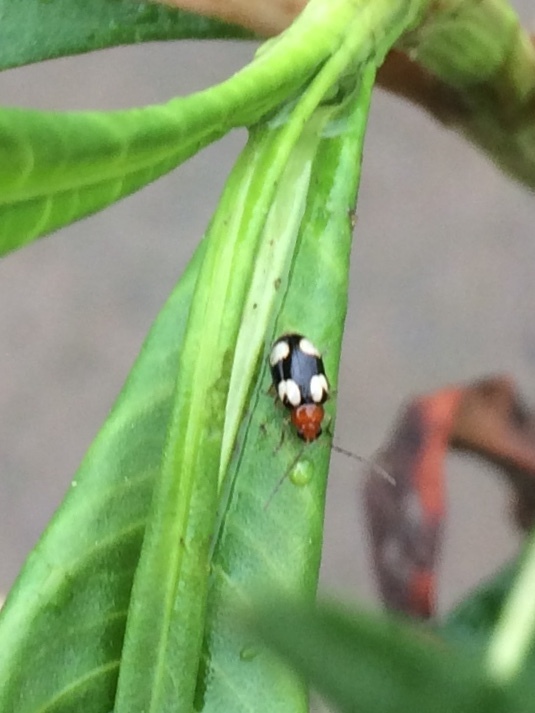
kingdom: Animalia
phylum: Arthropoda
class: Insecta
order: Coleoptera
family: Chrysomelidae
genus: Monolepta
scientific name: Monolepta signata
